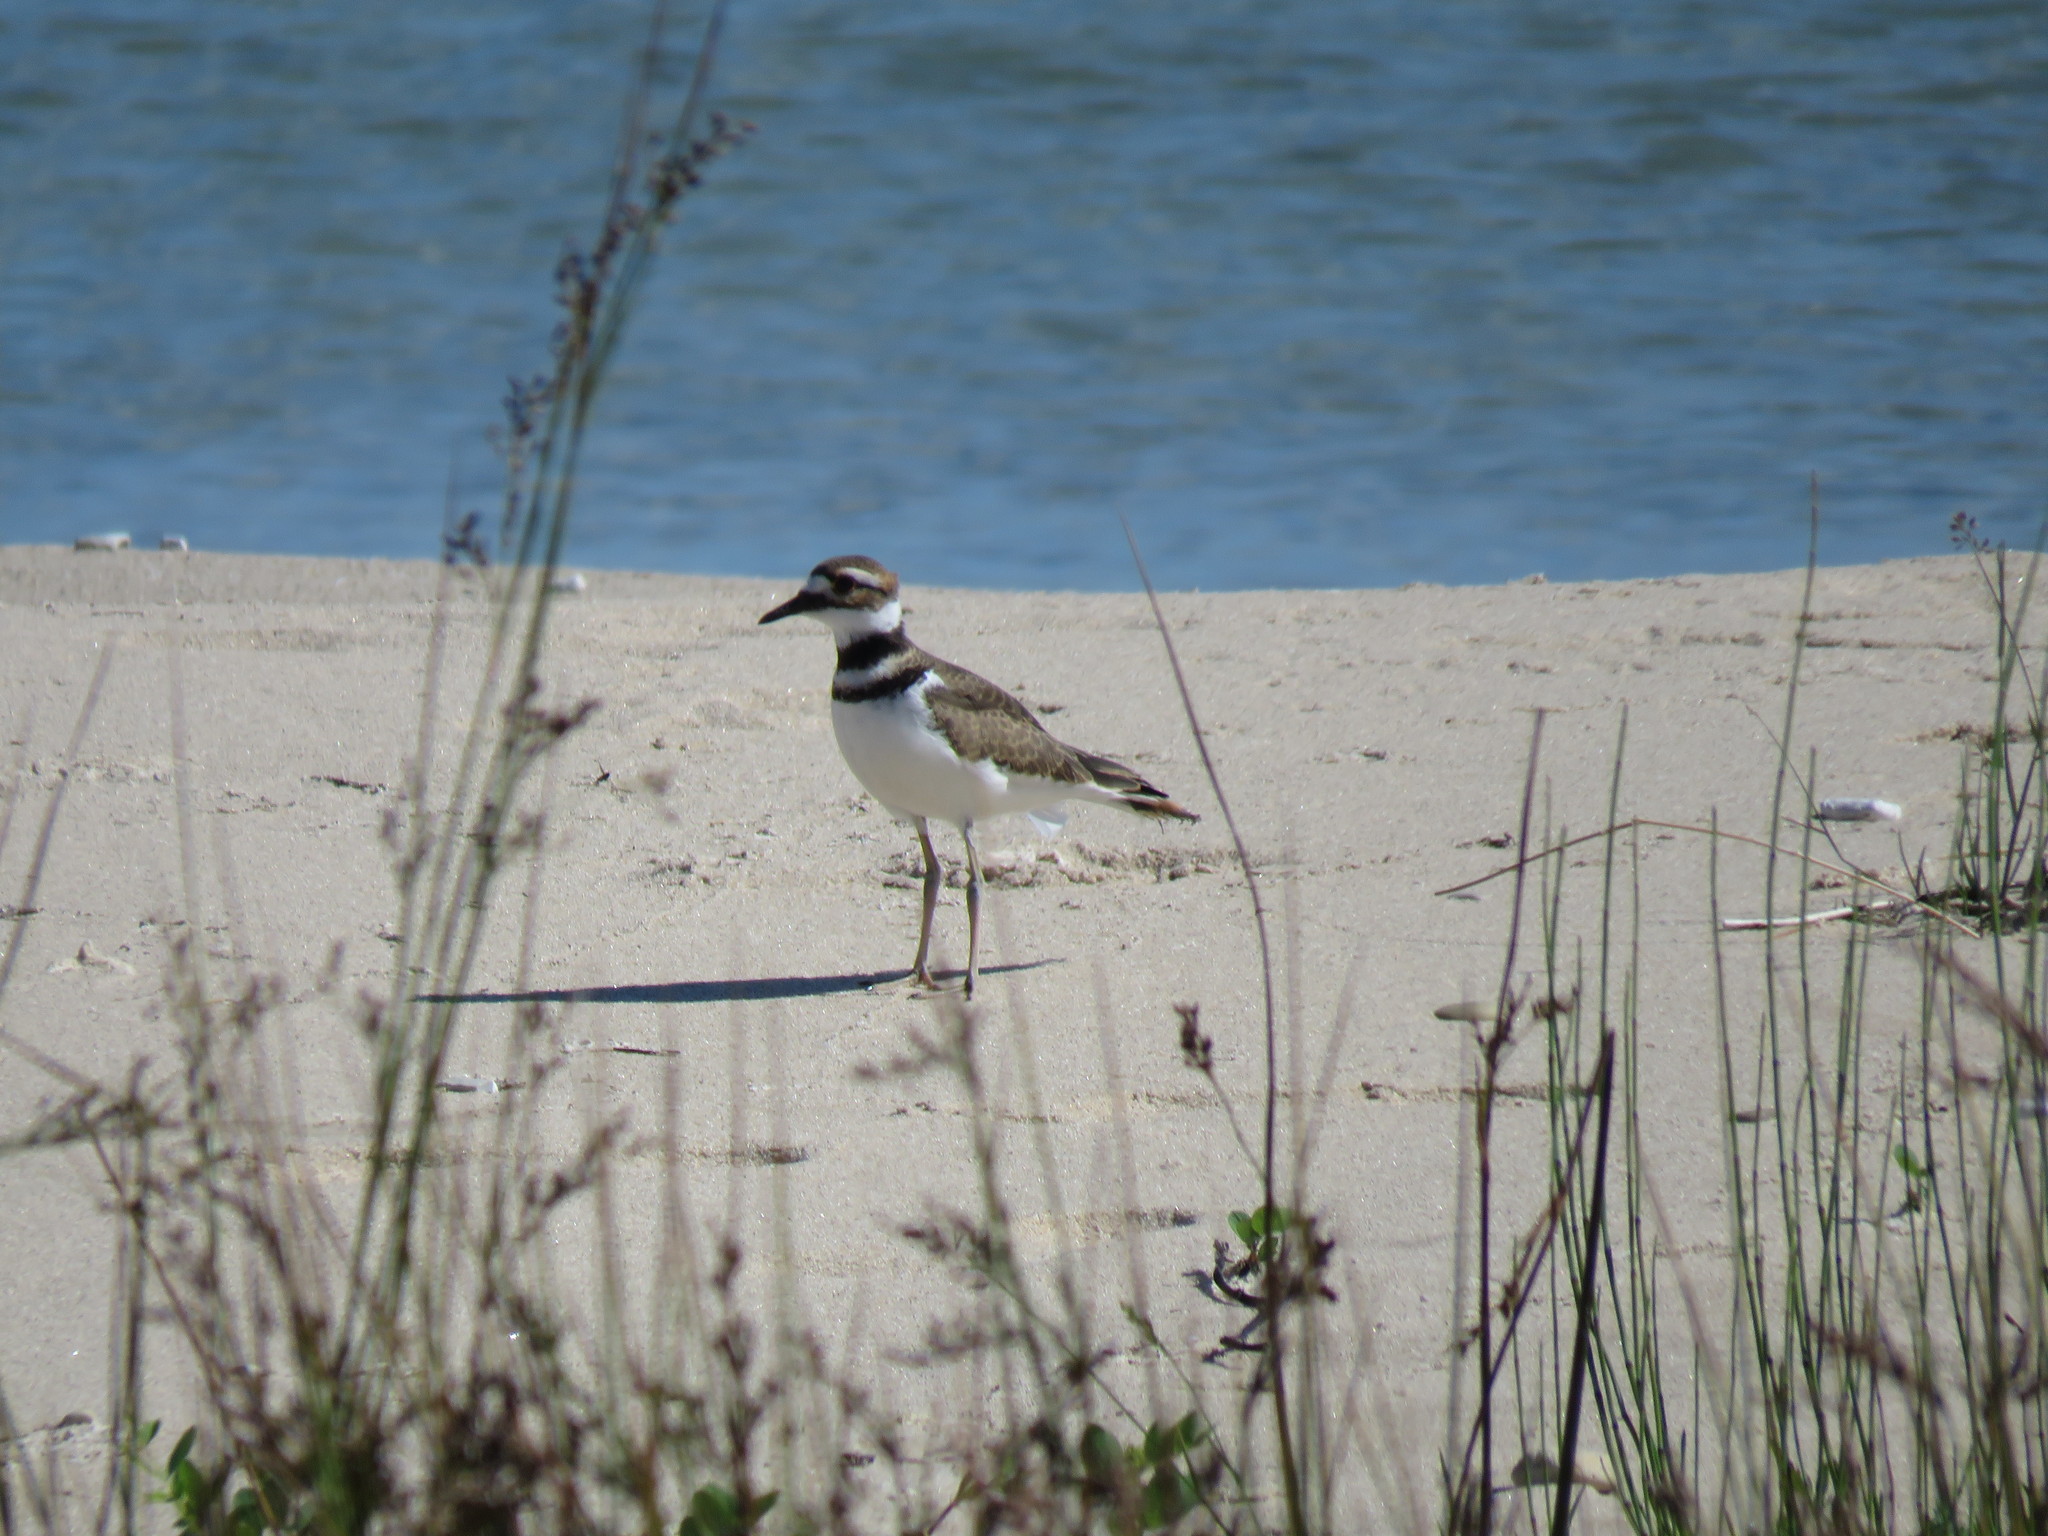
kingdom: Animalia
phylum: Chordata
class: Aves
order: Charadriiformes
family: Charadriidae
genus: Charadrius
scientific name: Charadrius vociferus
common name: Killdeer
